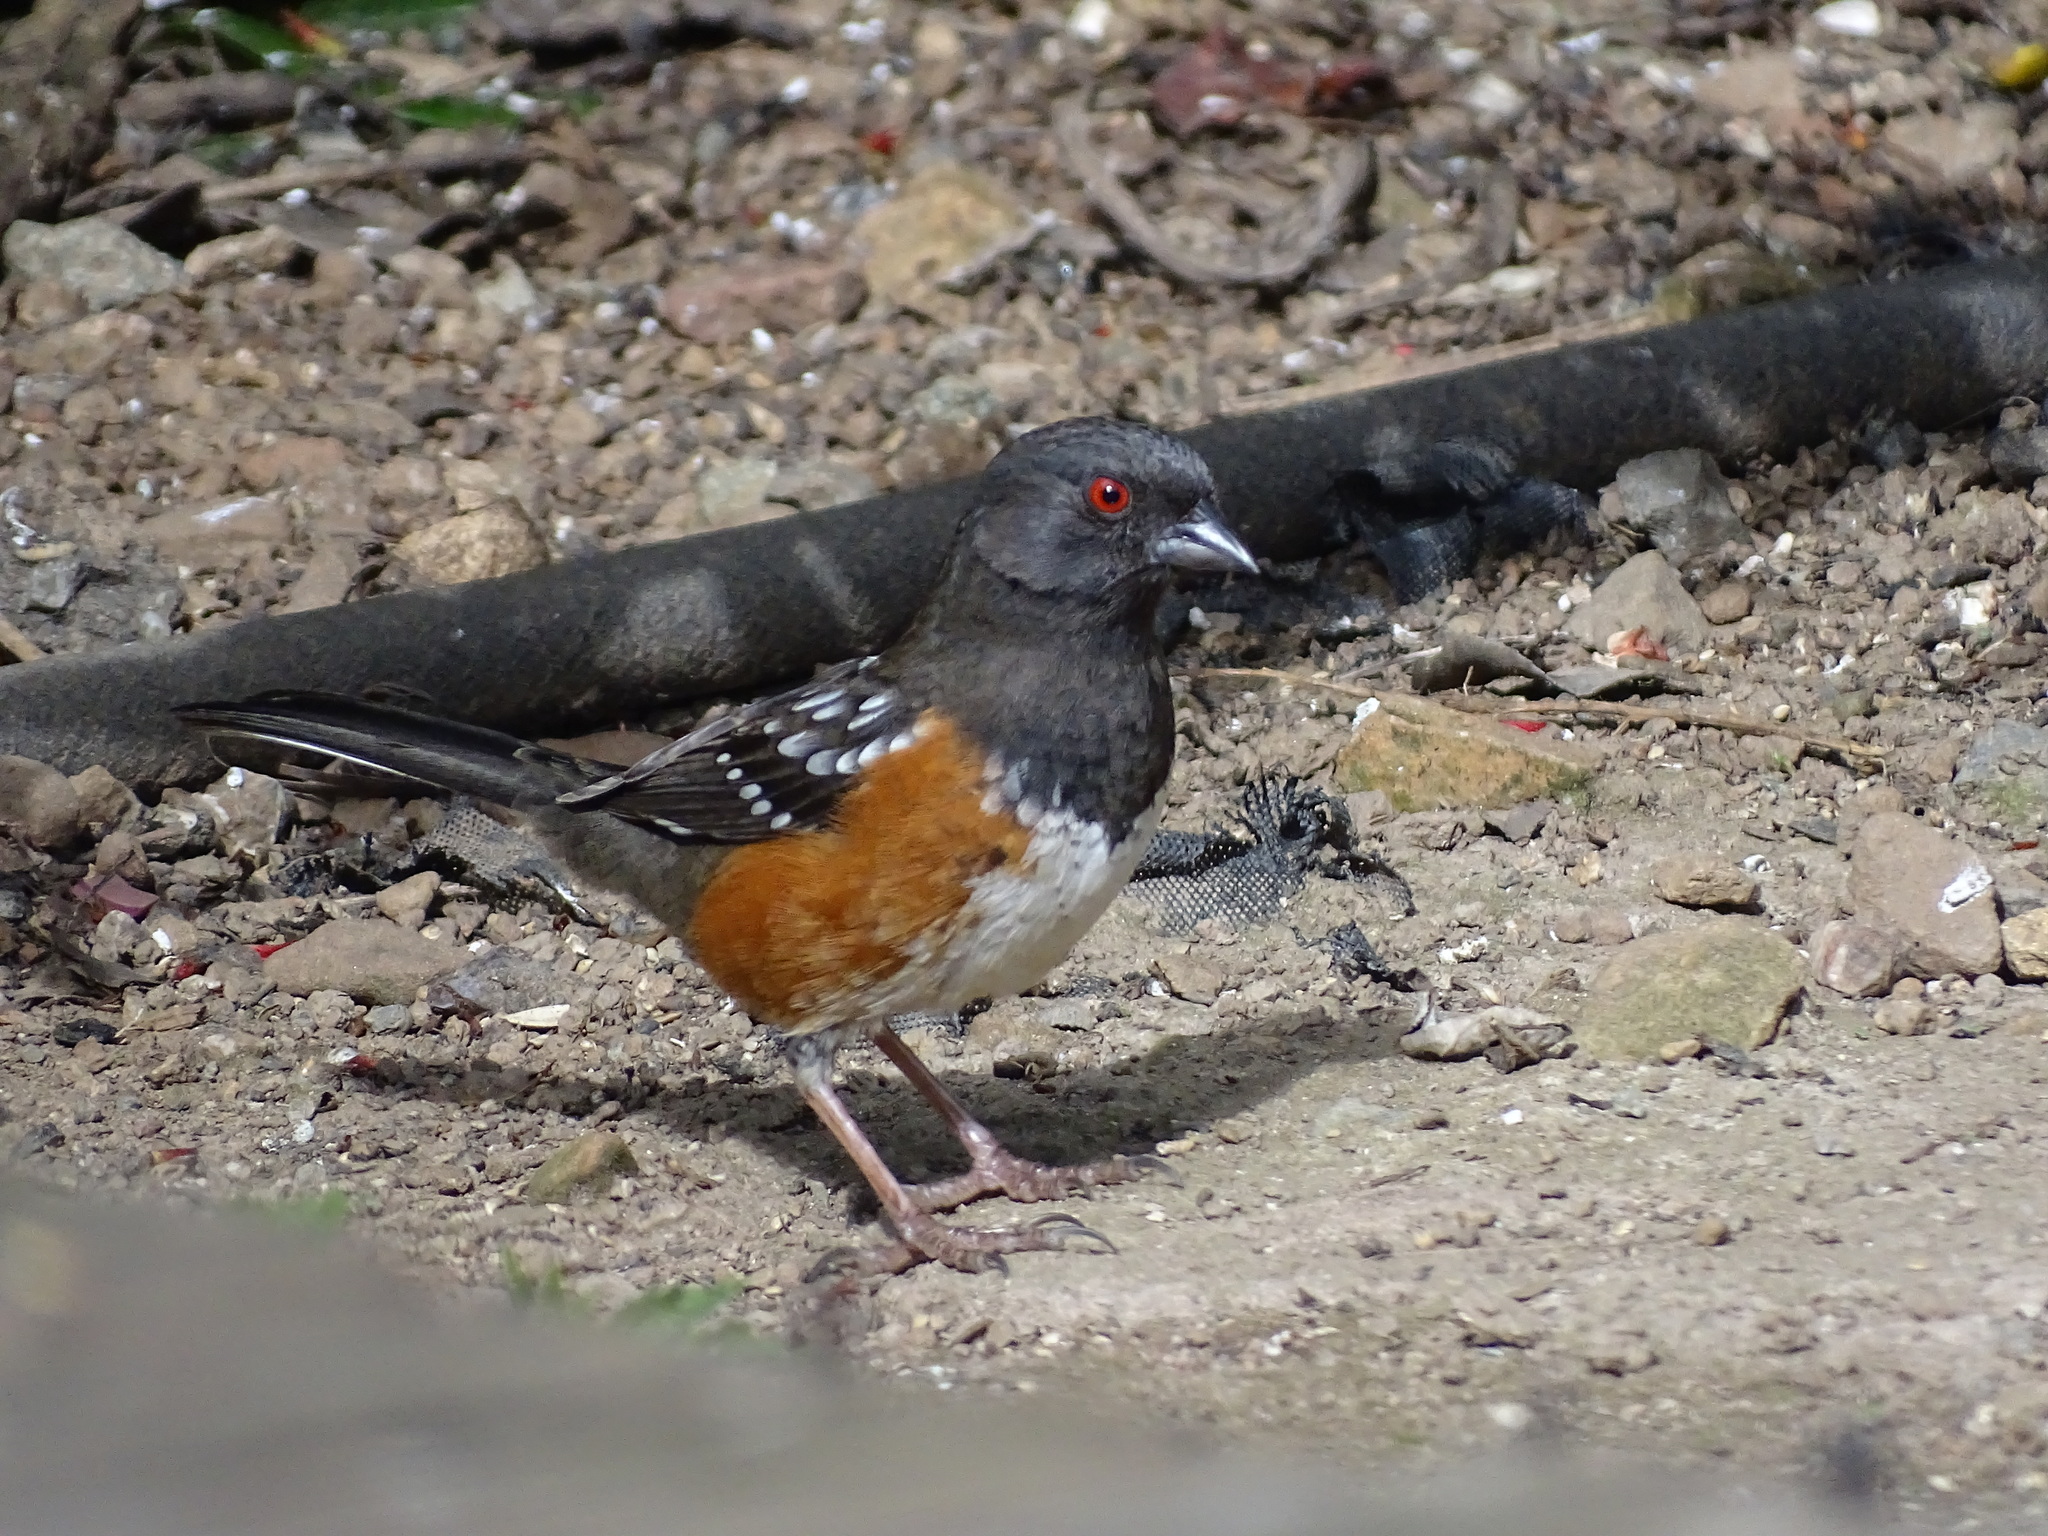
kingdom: Animalia
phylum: Chordata
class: Aves
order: Passeriformes
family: Passerellidae
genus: Pipilo
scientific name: Pipilo maculatus
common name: Spotted towhee
